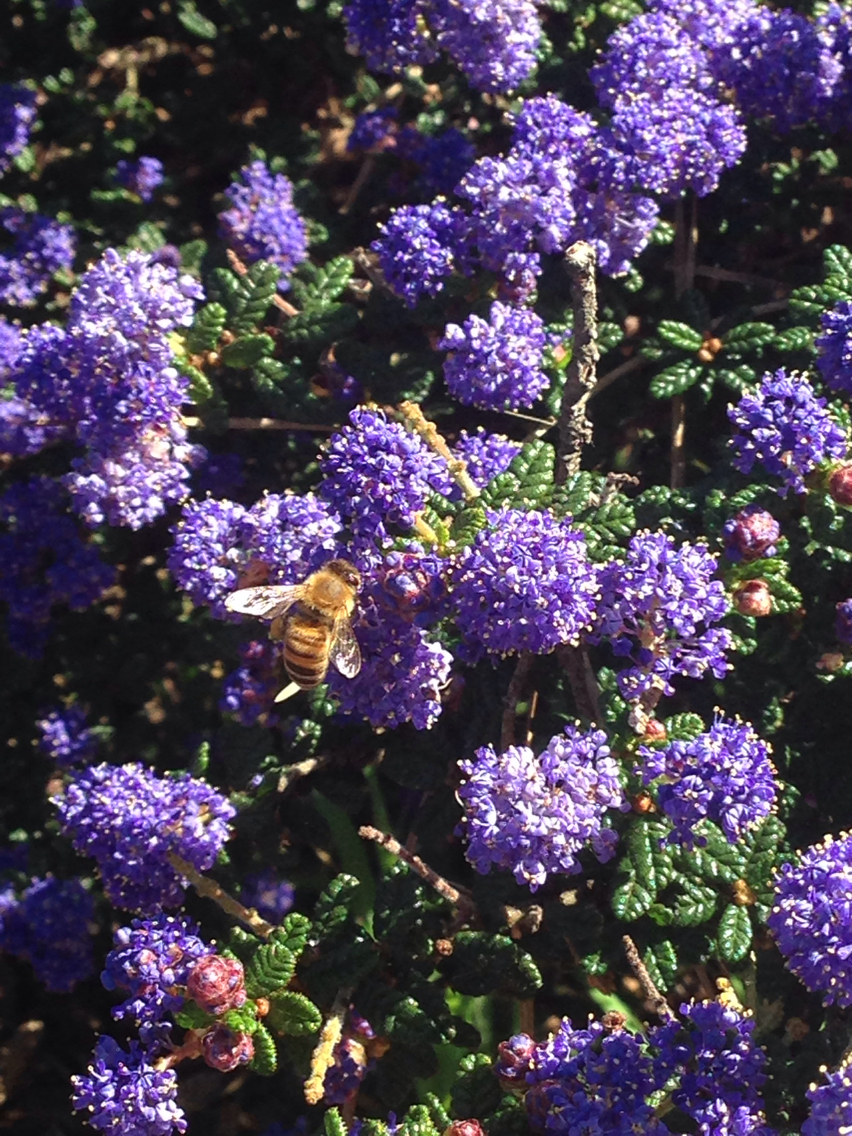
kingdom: Animalia
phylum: Arthropoda
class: Insecta
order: Hymenoptera
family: Apidae
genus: Apis
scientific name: Apis mellifera
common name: Honey bee
